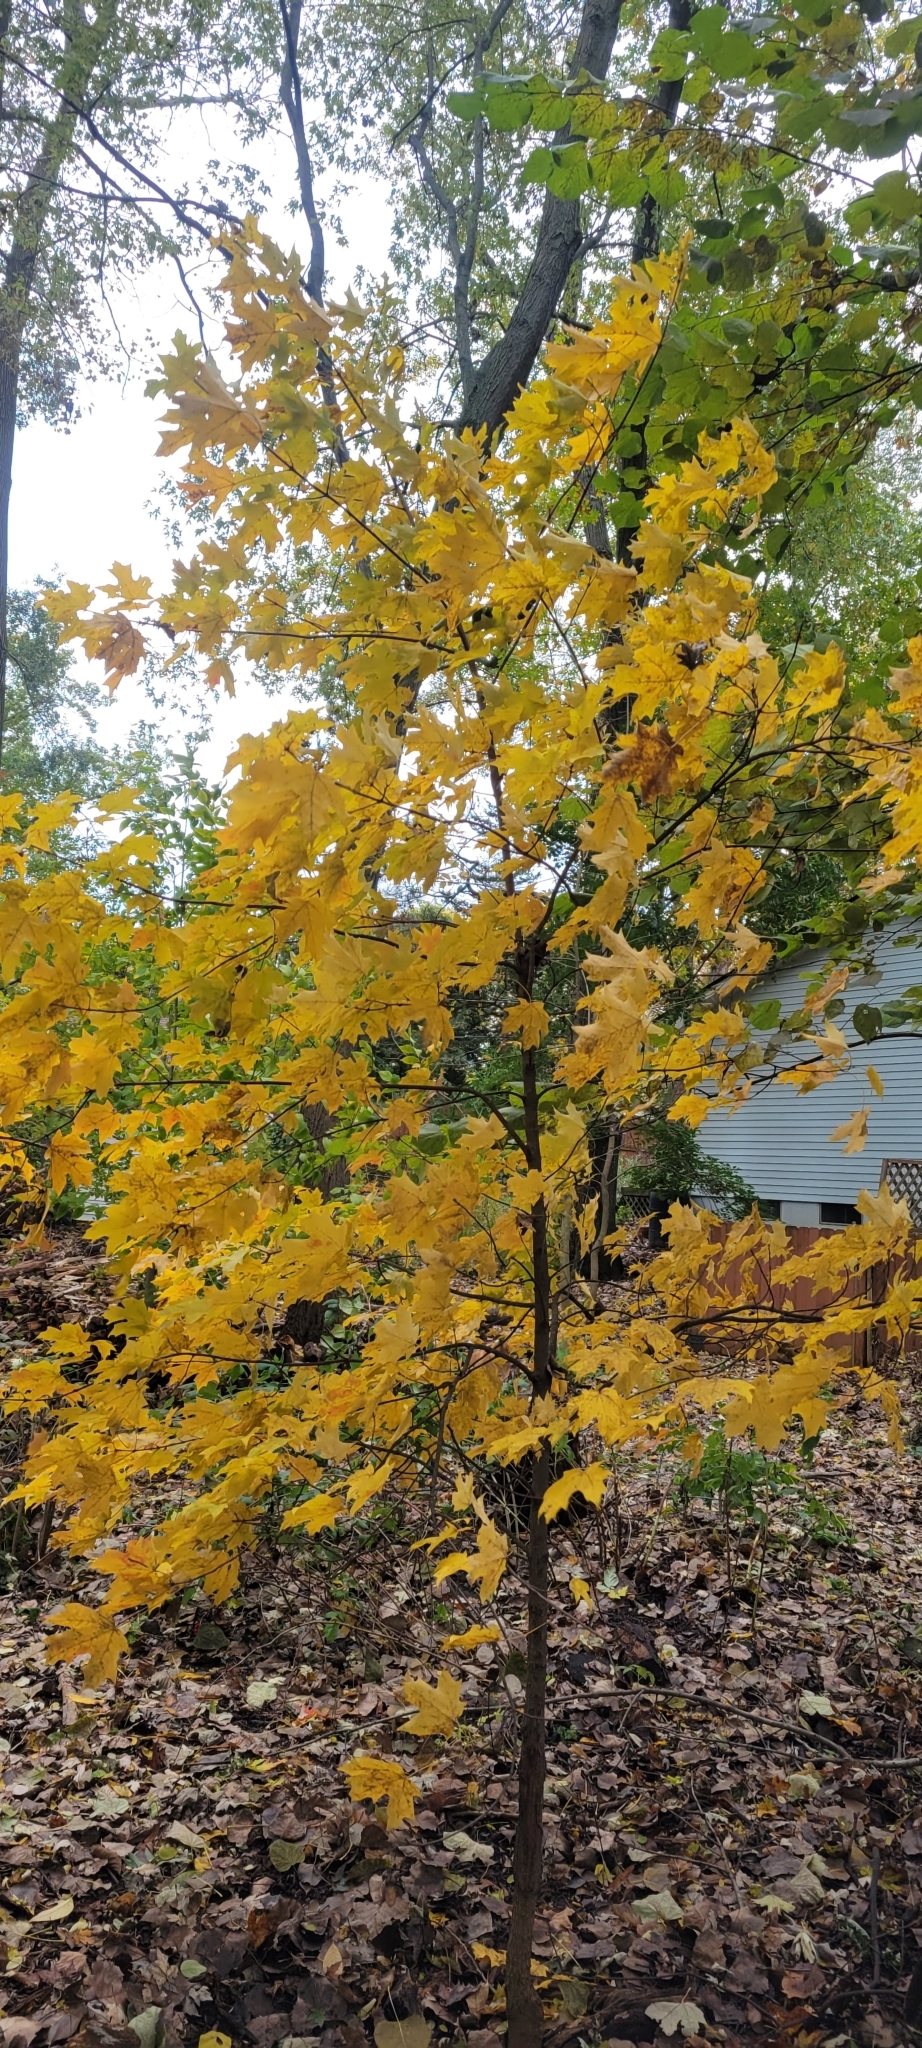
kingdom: Plantae
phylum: Tracheophyta
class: Magnoliopsida
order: Sapindales
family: Sapindaceae
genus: Acer
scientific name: Acer saccharum
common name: Sugar maple
